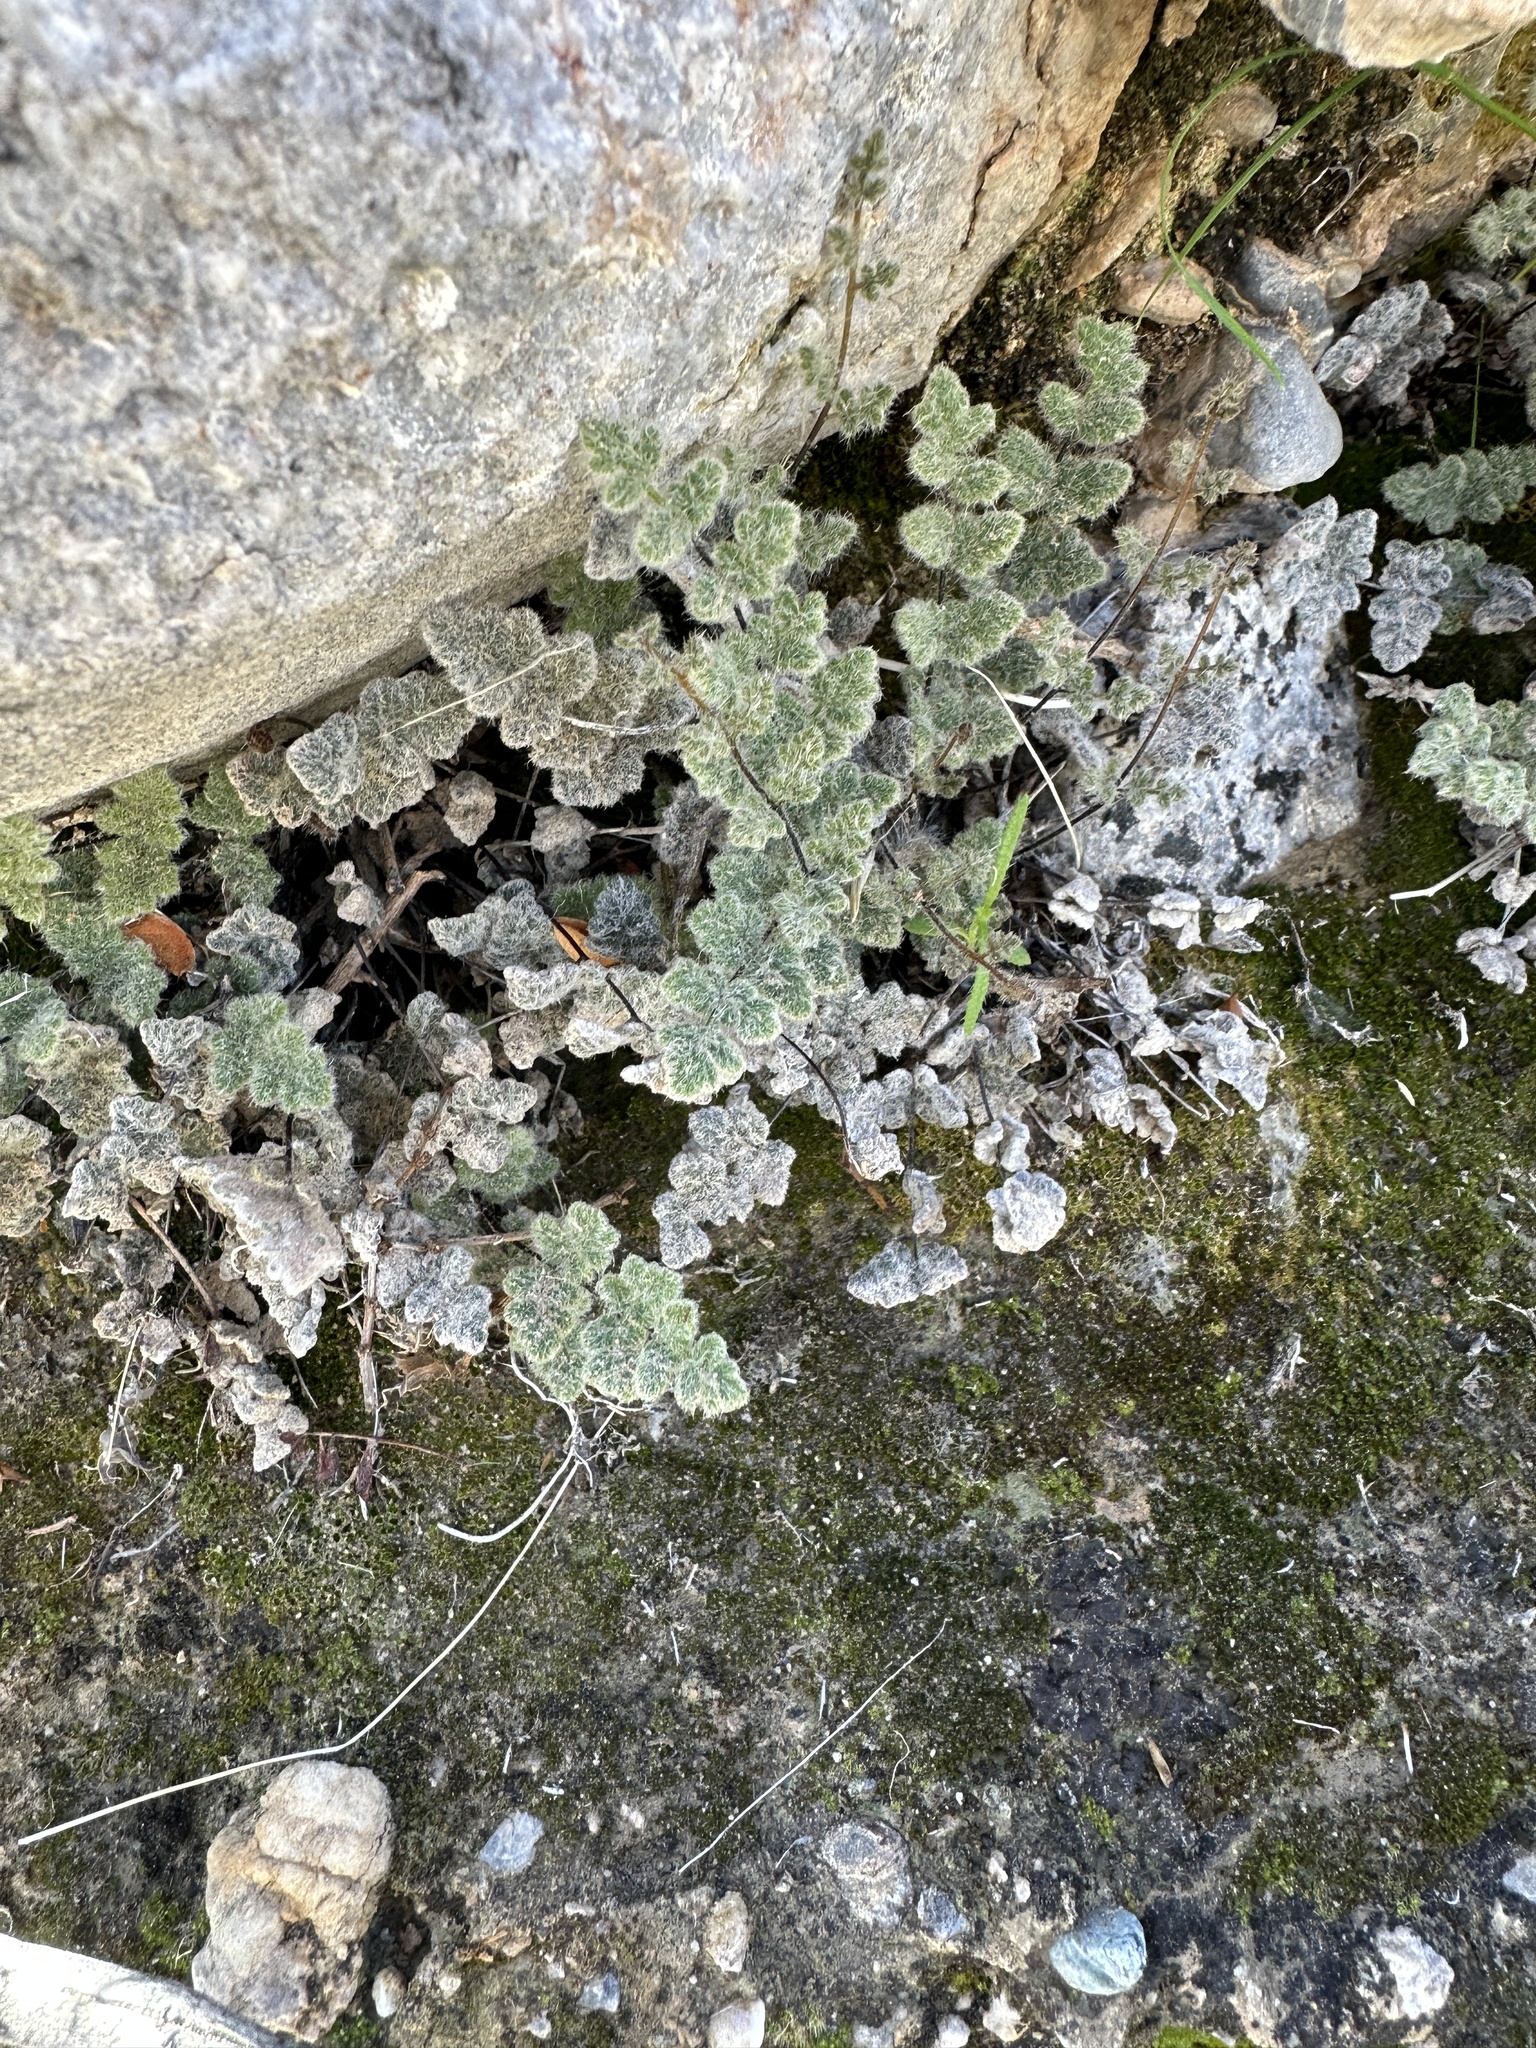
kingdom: Plantae
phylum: Tracheophyta
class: Polypodiopsida
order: Polypodiales
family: Pteridaceae
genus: Myriopteris
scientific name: Myriopteris parryi
